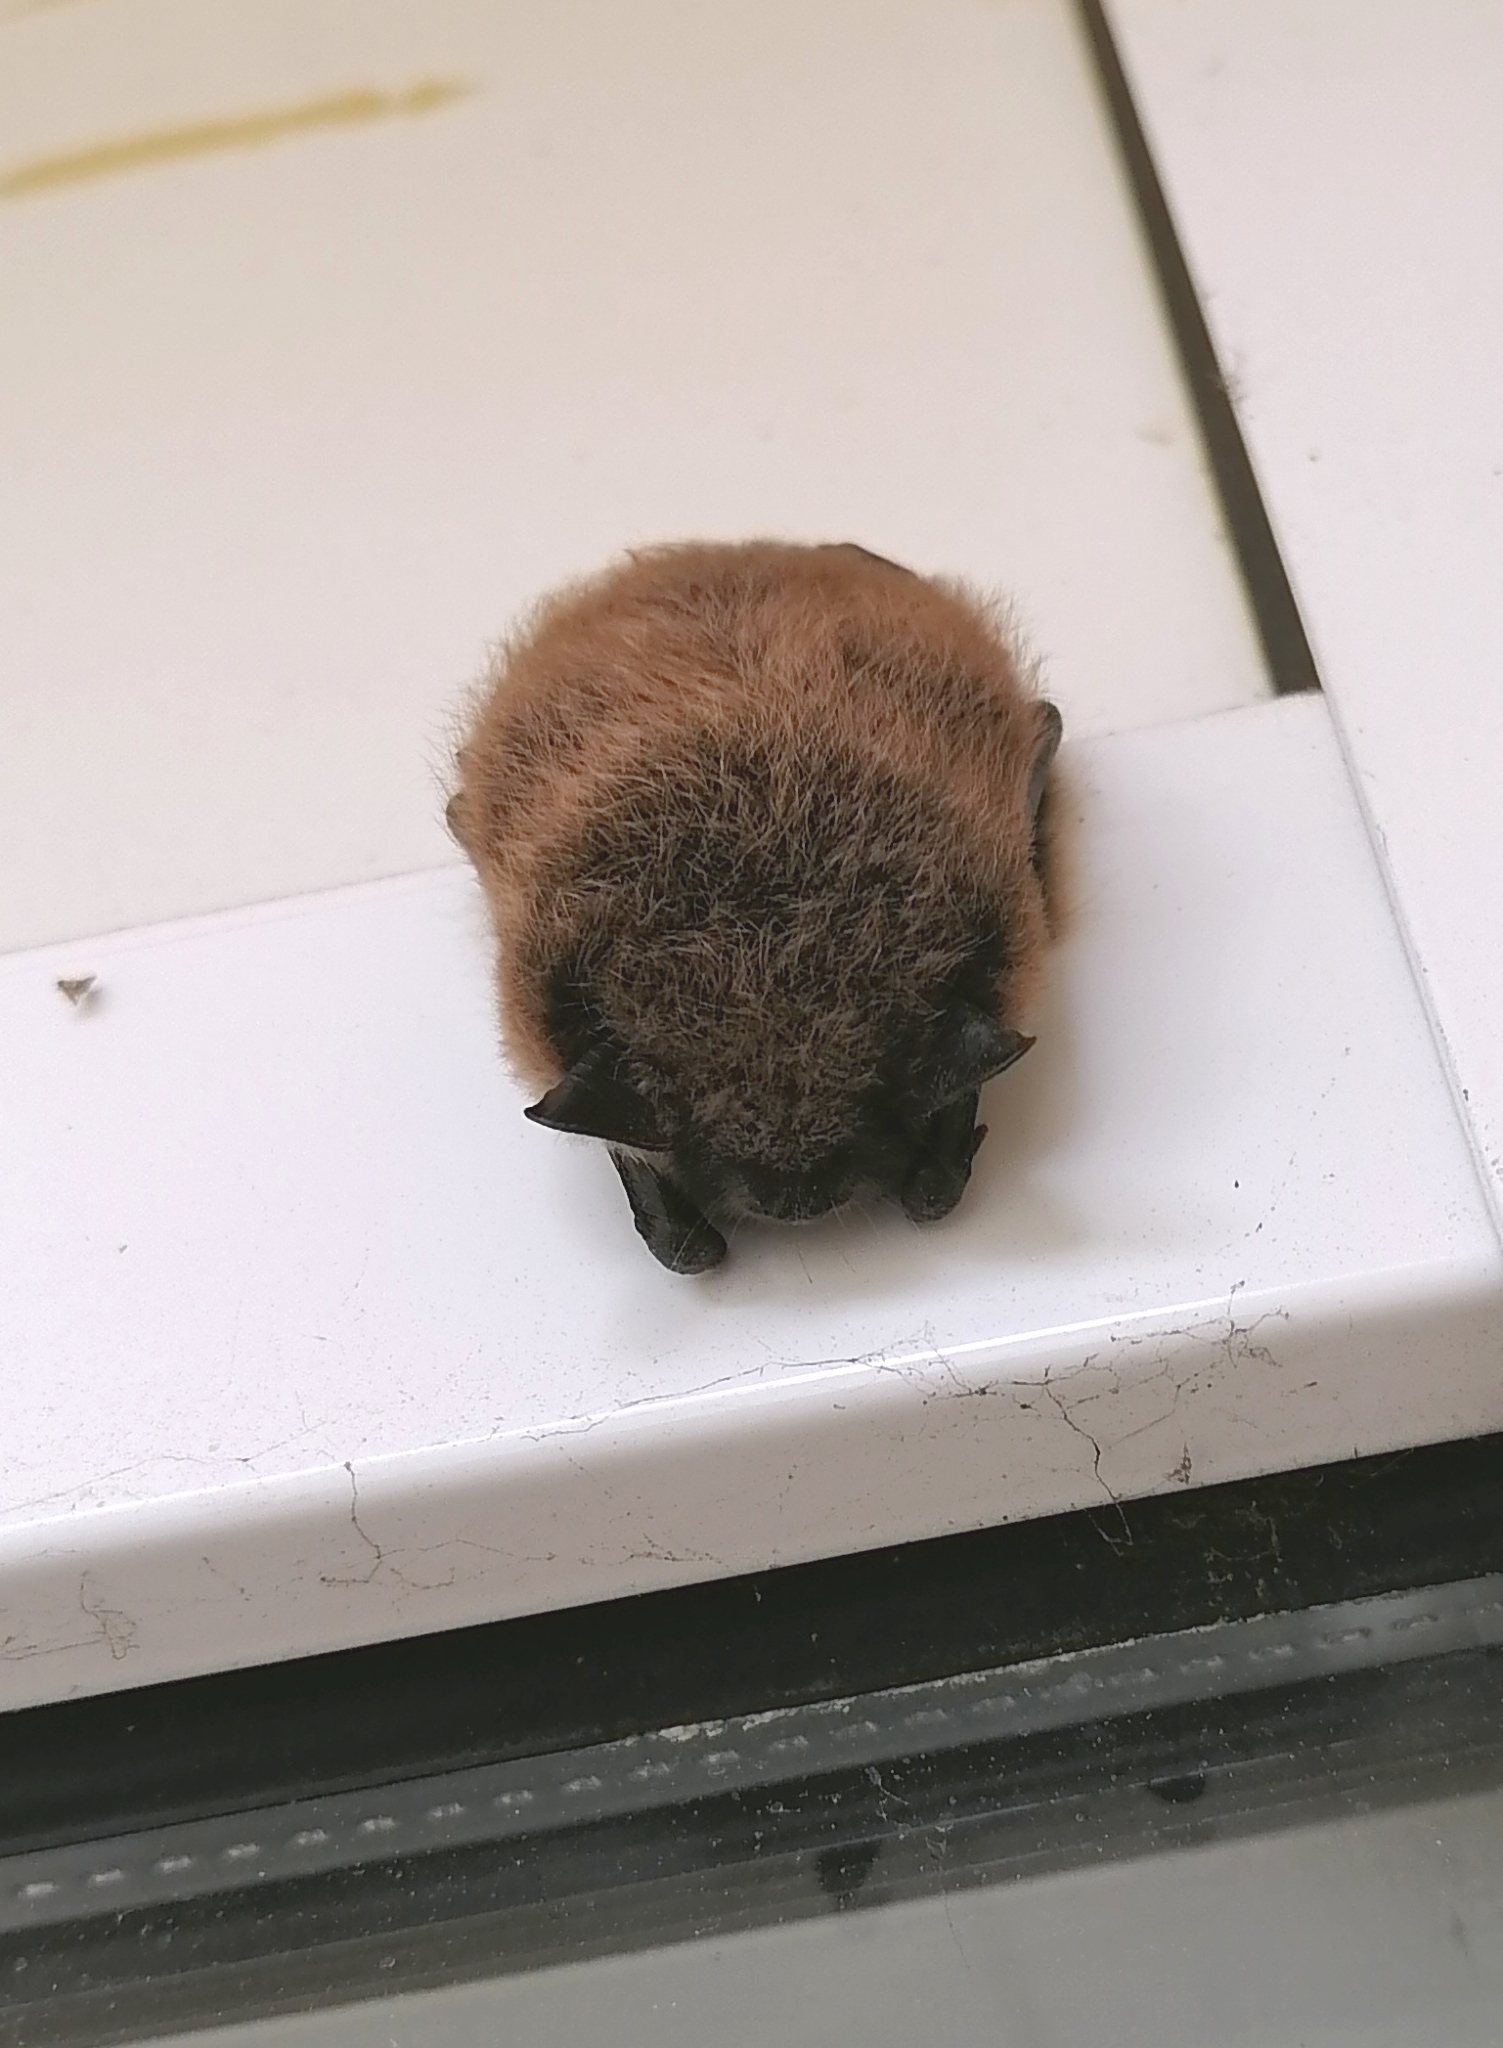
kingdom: Animalia
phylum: Chordata
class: Mammalia
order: Chiroptera
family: Vespertilionidae
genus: Myotis
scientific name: Myotis sibiricus
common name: Siberian whiskered myotis
